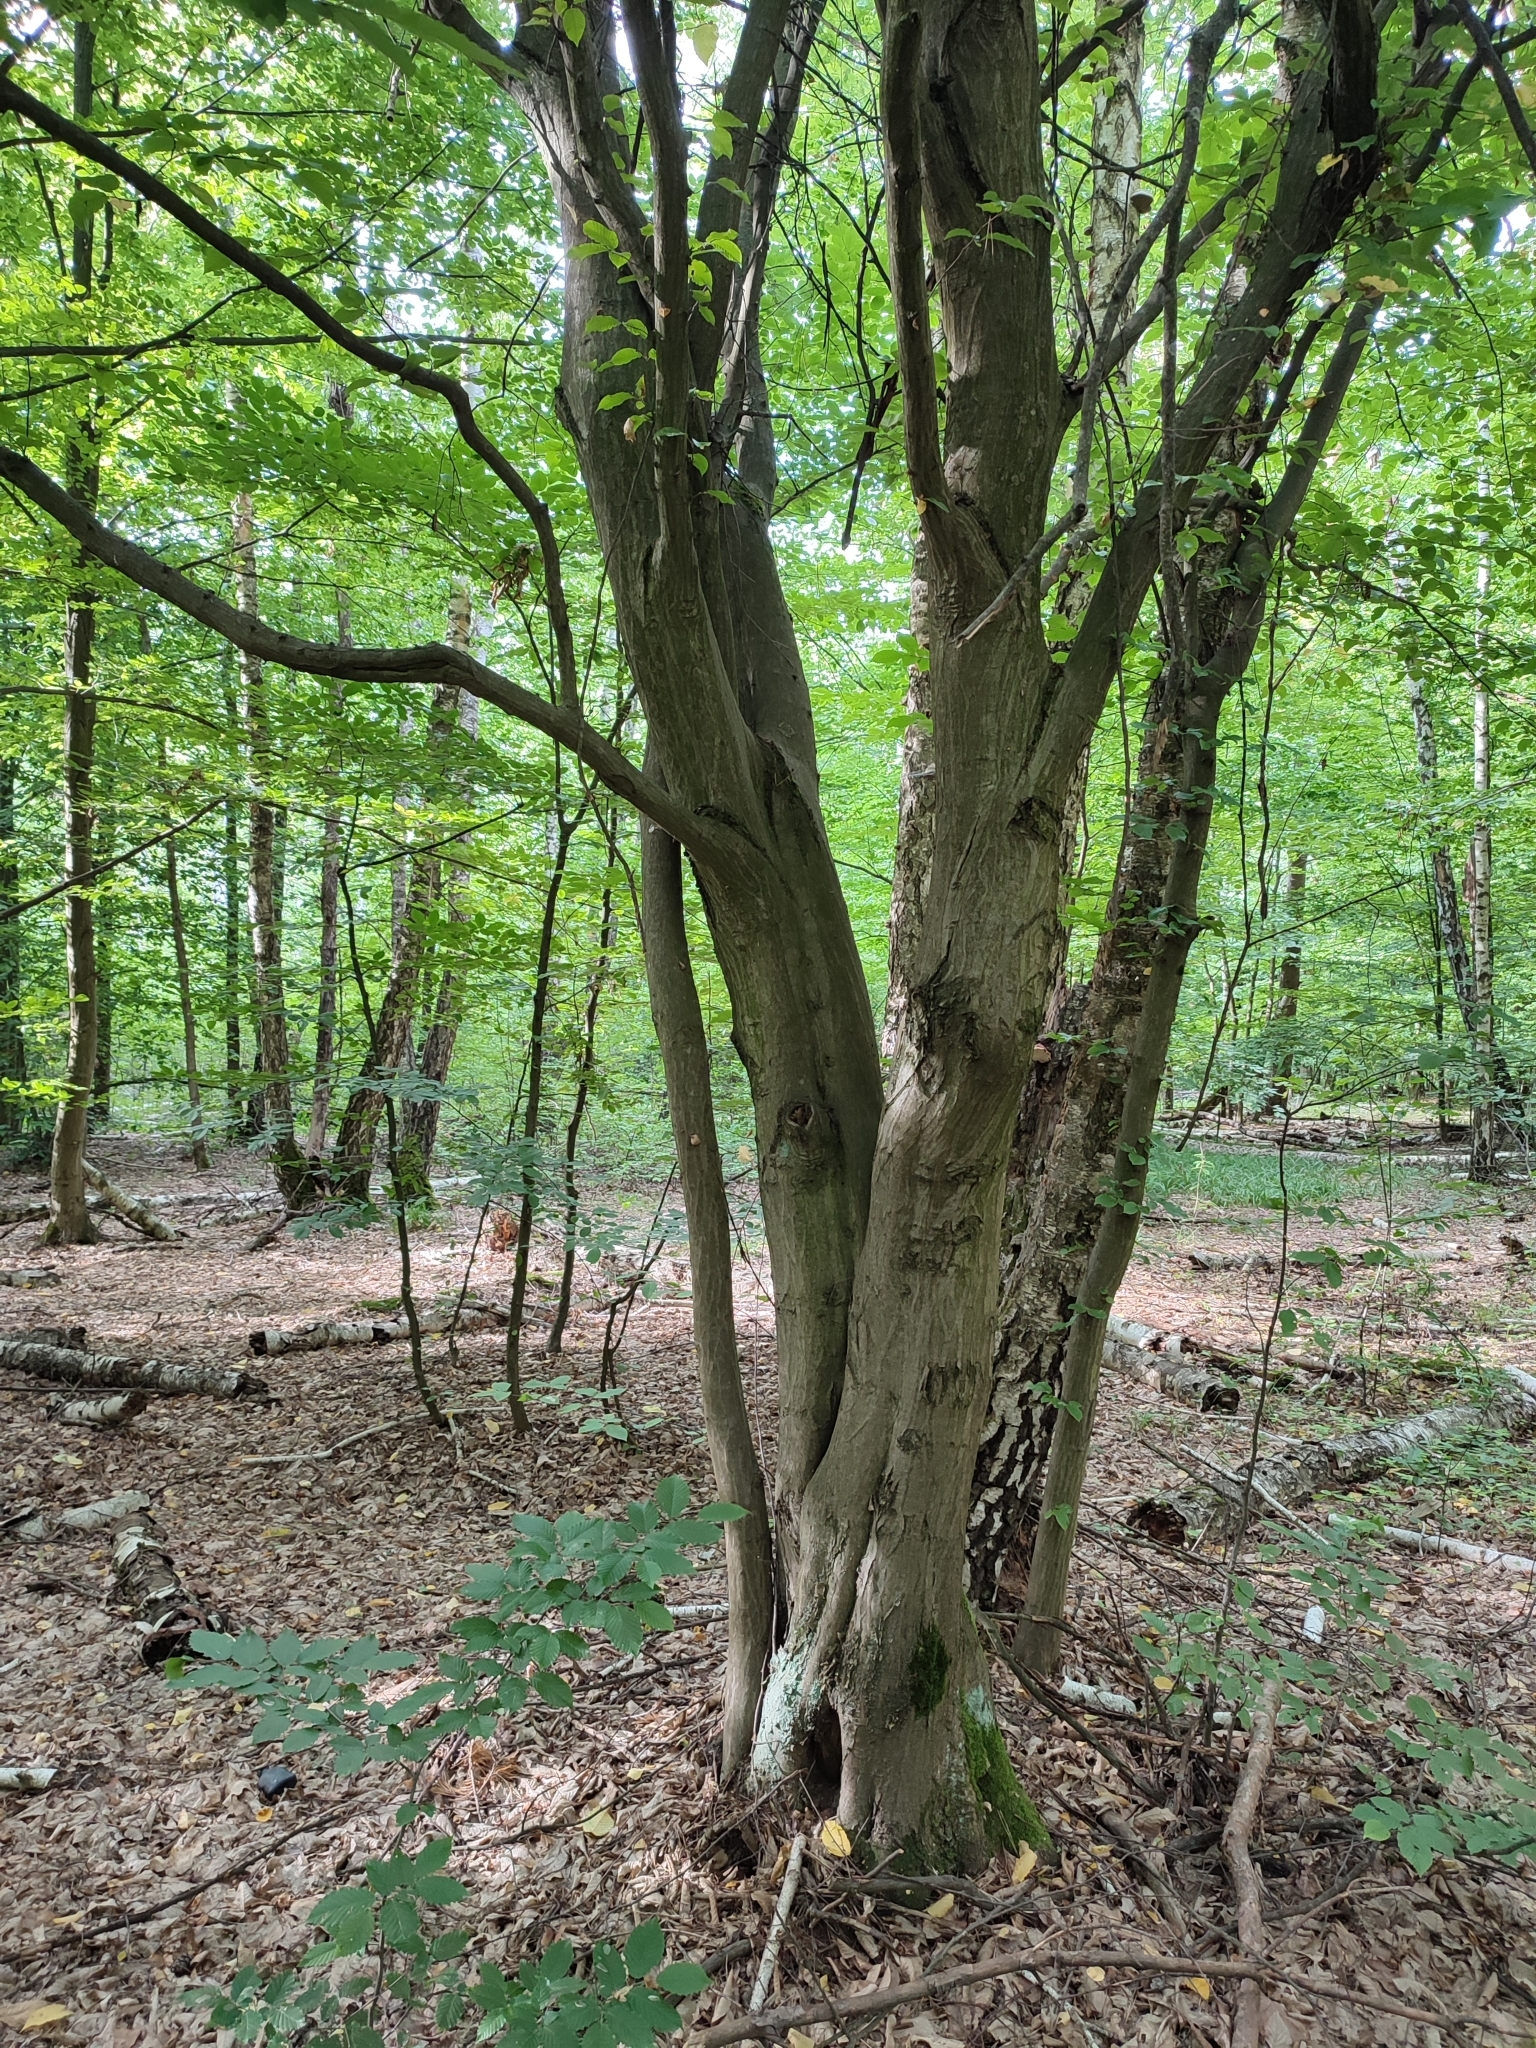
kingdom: Plantae
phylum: Tracheophyta
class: Magnoliopsida
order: Fagales
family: Betulaceae
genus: Carpinus
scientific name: Carpinus betulus
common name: Hornbeam
